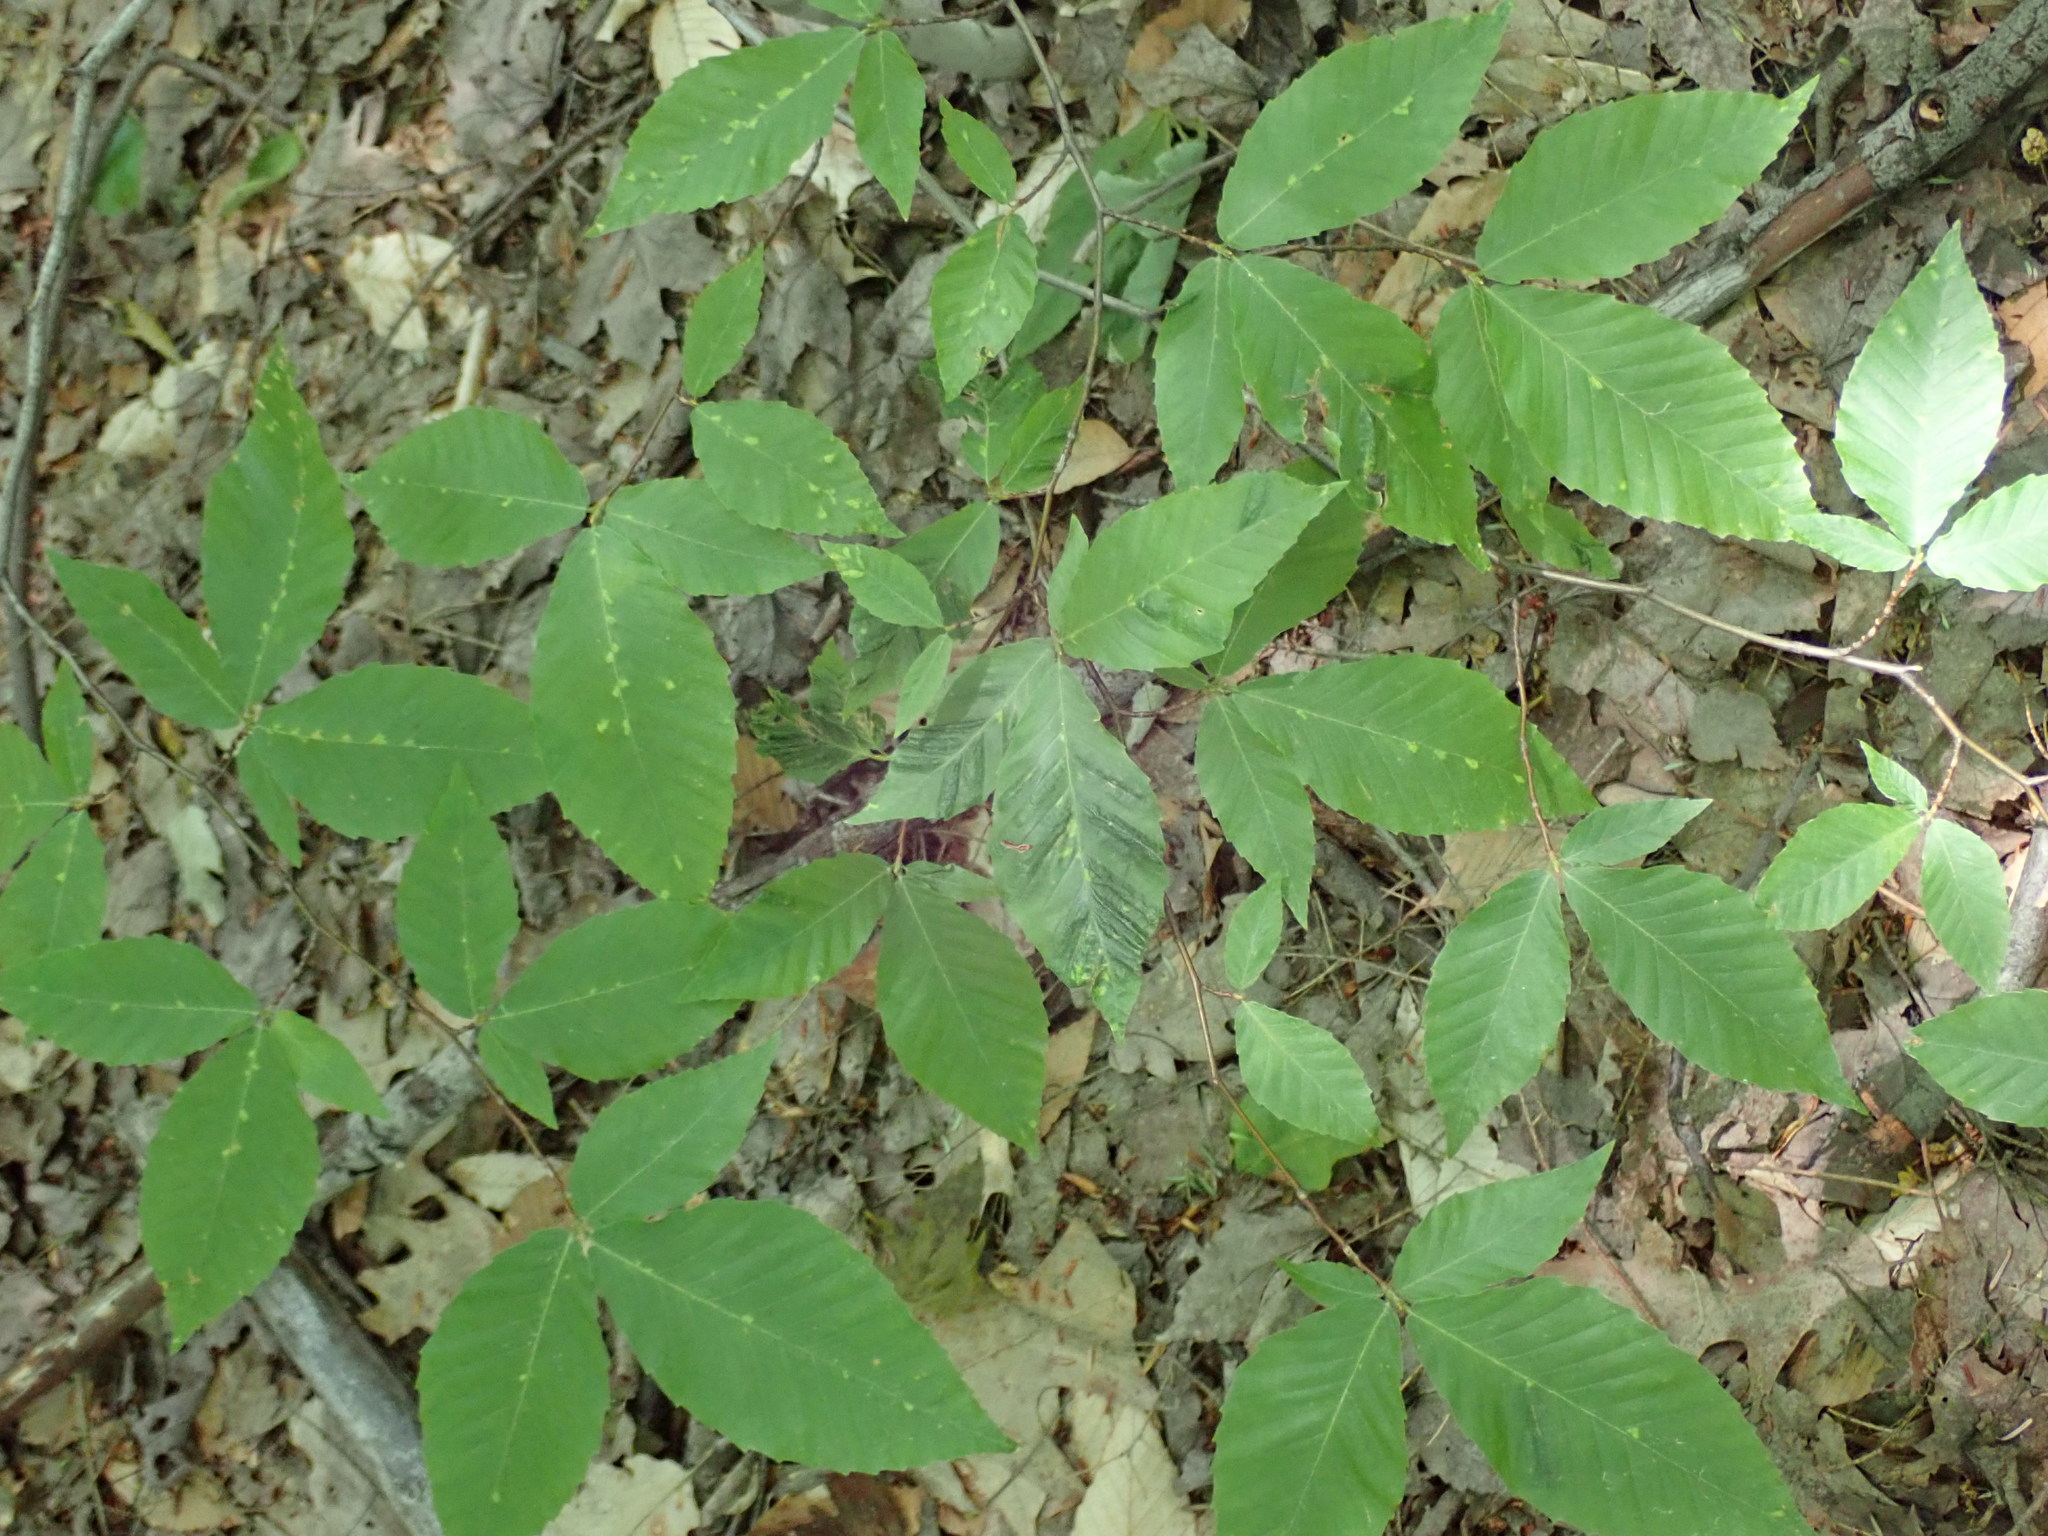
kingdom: Plantae
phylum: Tracheophyta
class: Magnoliopsida
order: Fagales
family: Fagaceae
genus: Fagus
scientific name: Fagus grandifolia
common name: American beech
